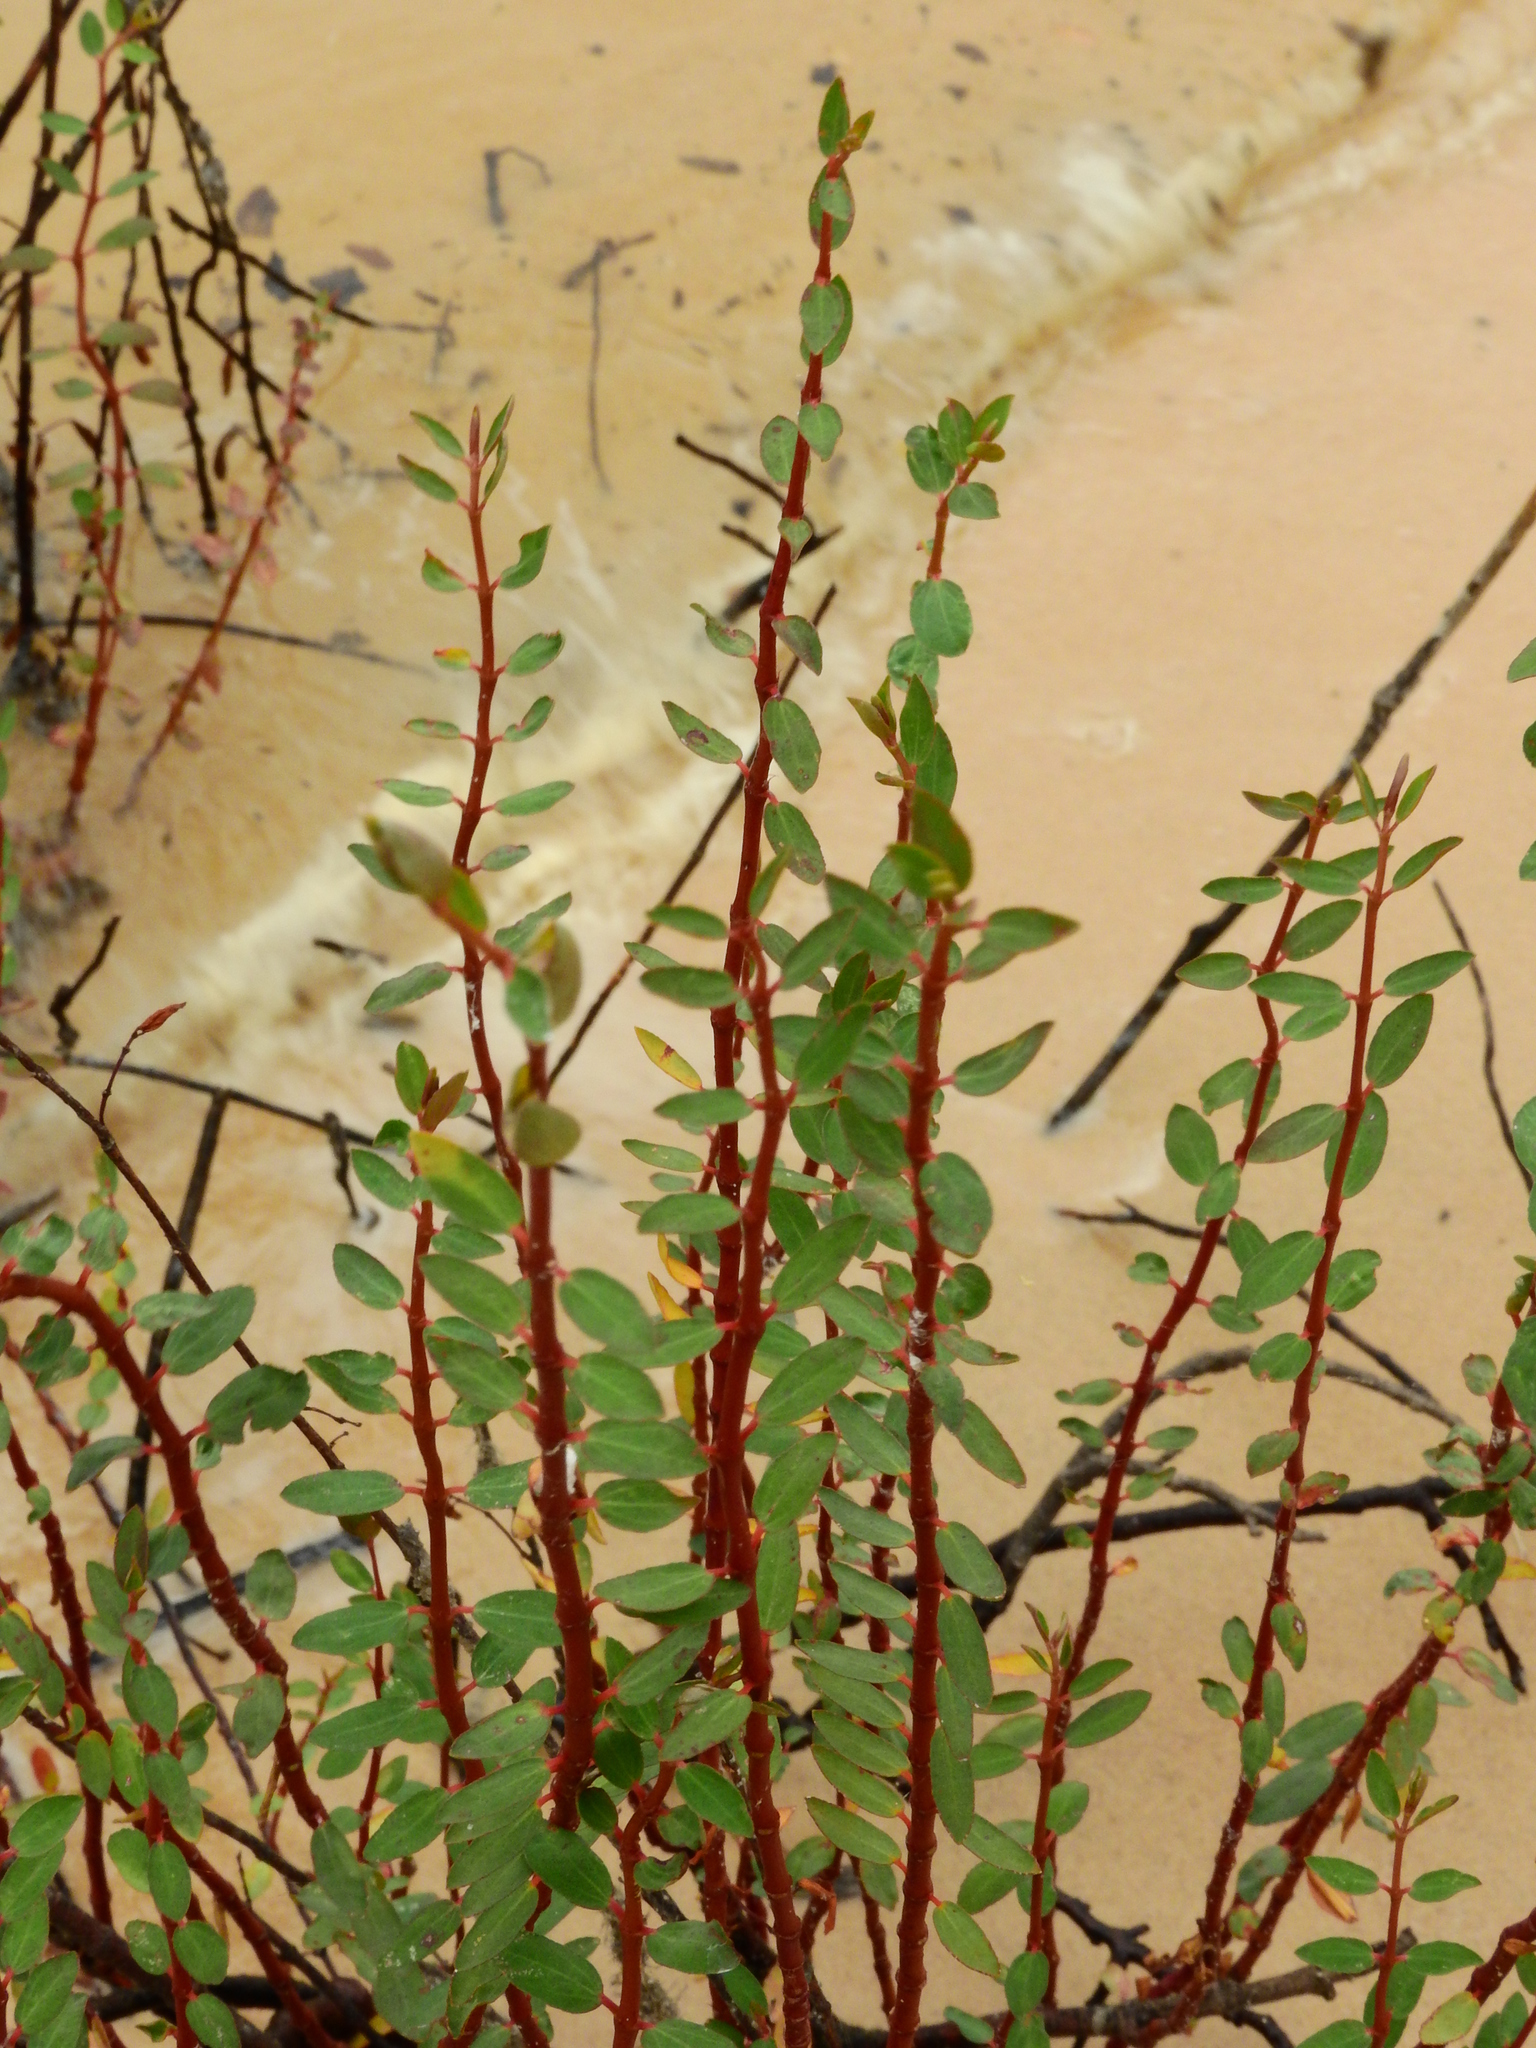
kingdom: Plantae
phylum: Tracheophyta
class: Magnoliopsida
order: Malpighiales
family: Euphorbiaceae
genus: Euphorbia
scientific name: Euphorbia duckei
